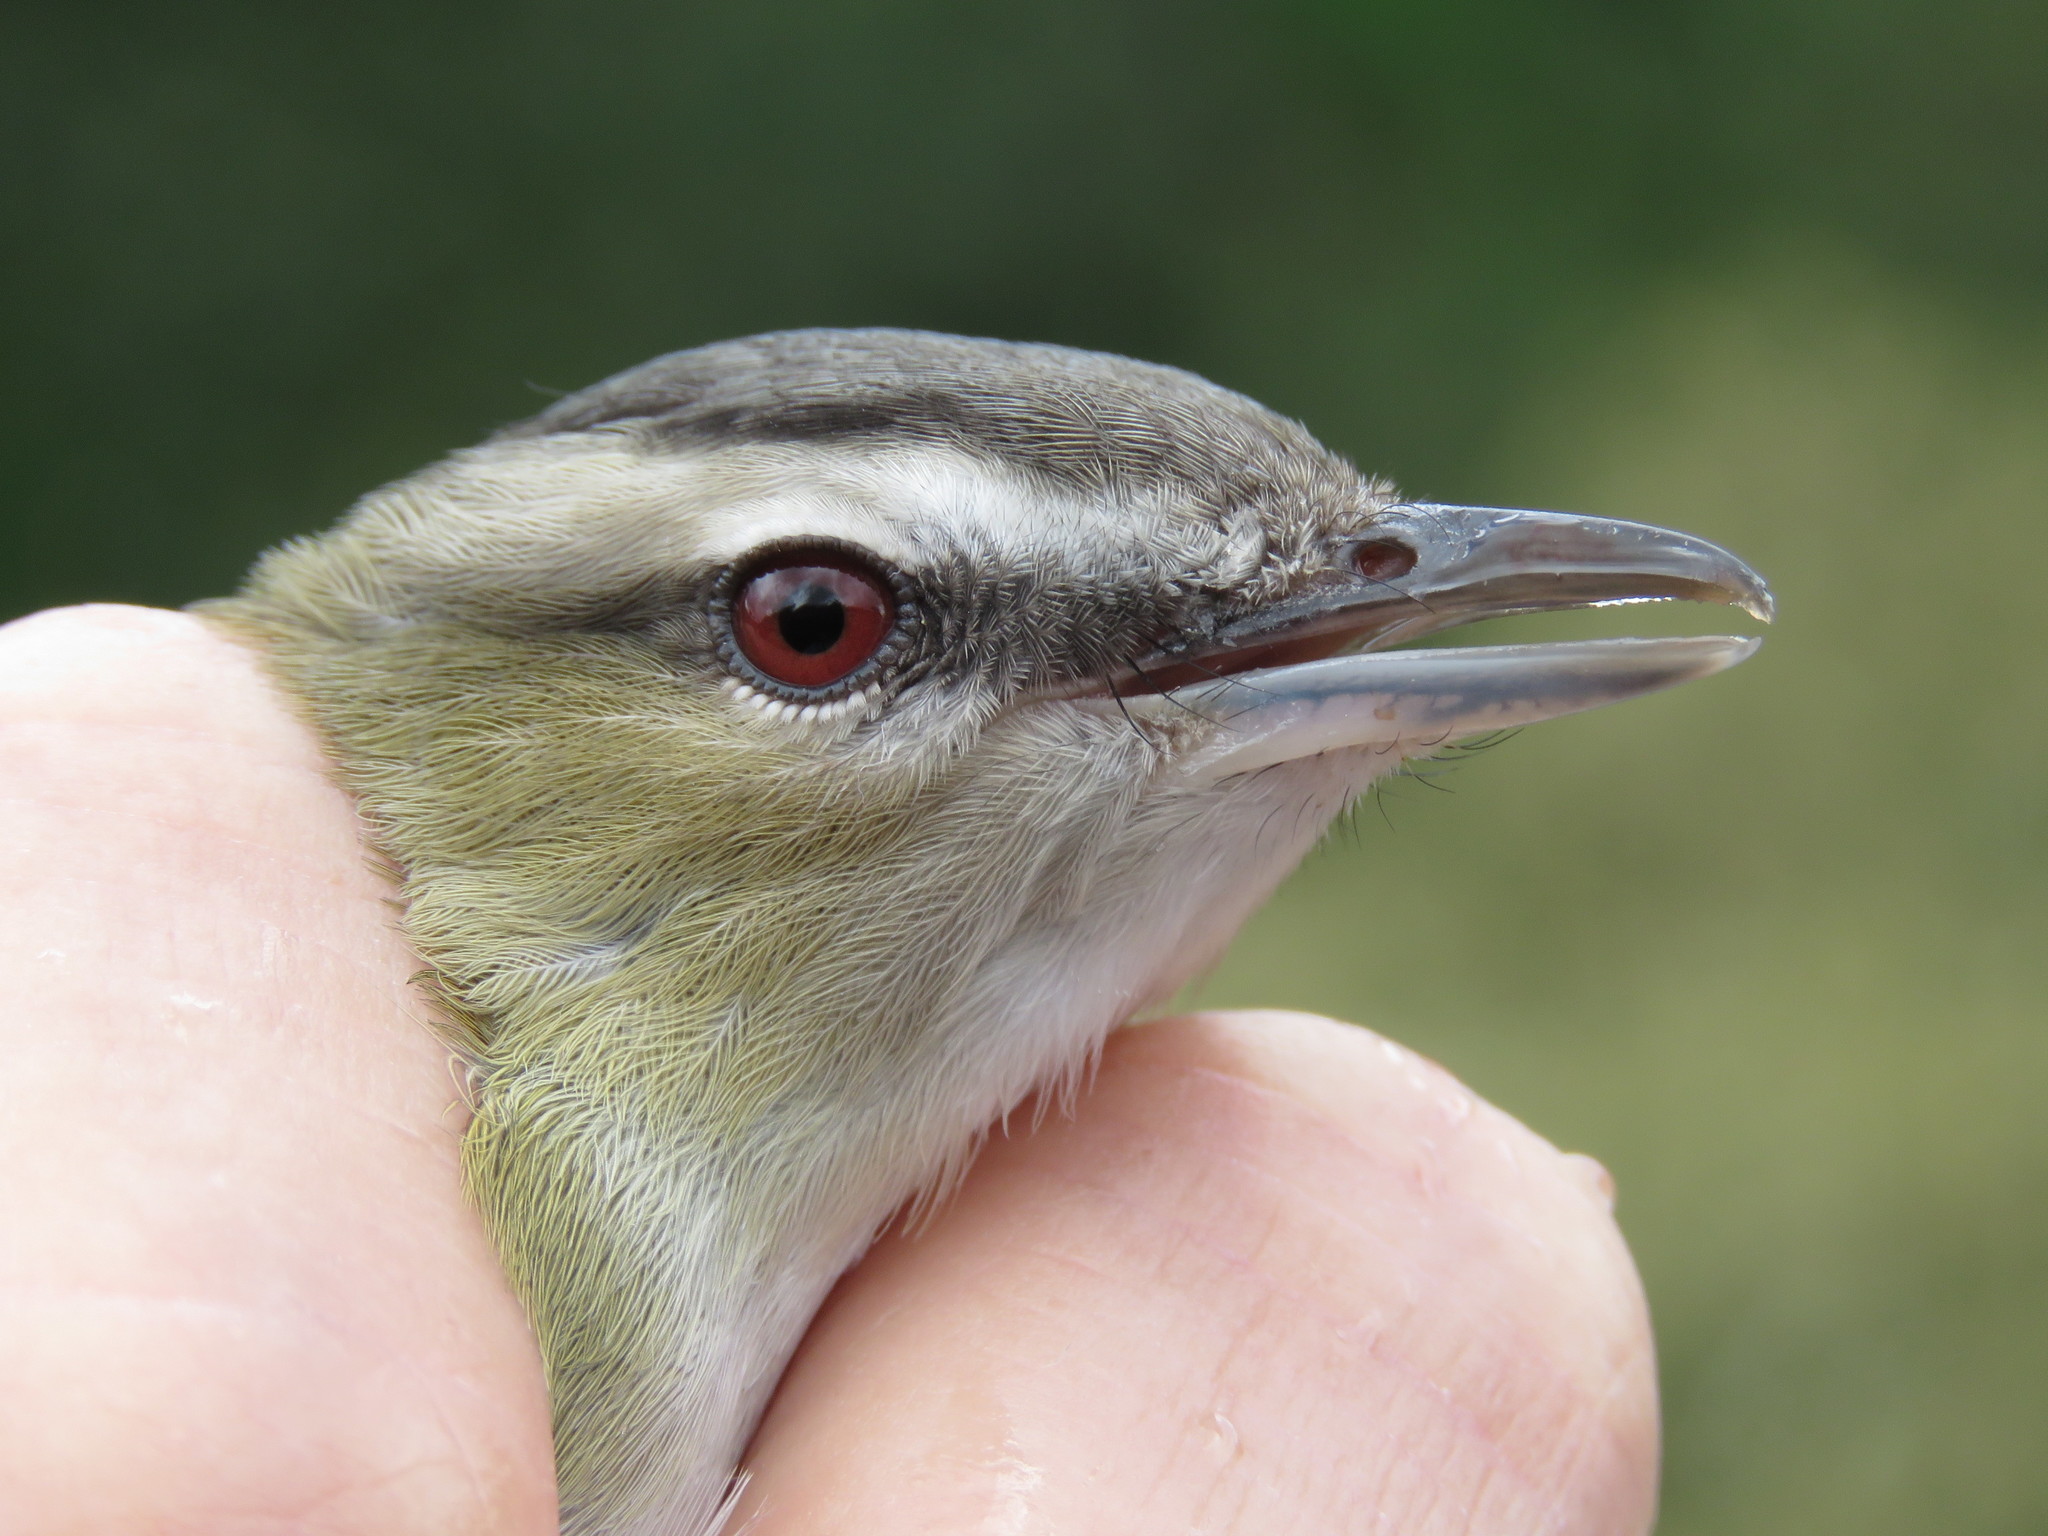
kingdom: Animalia
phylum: Chordata
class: Aves
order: Passeriformes
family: Vireonidae
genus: Vireo
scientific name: Vireo olivaceus
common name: Red-eyed vireo
